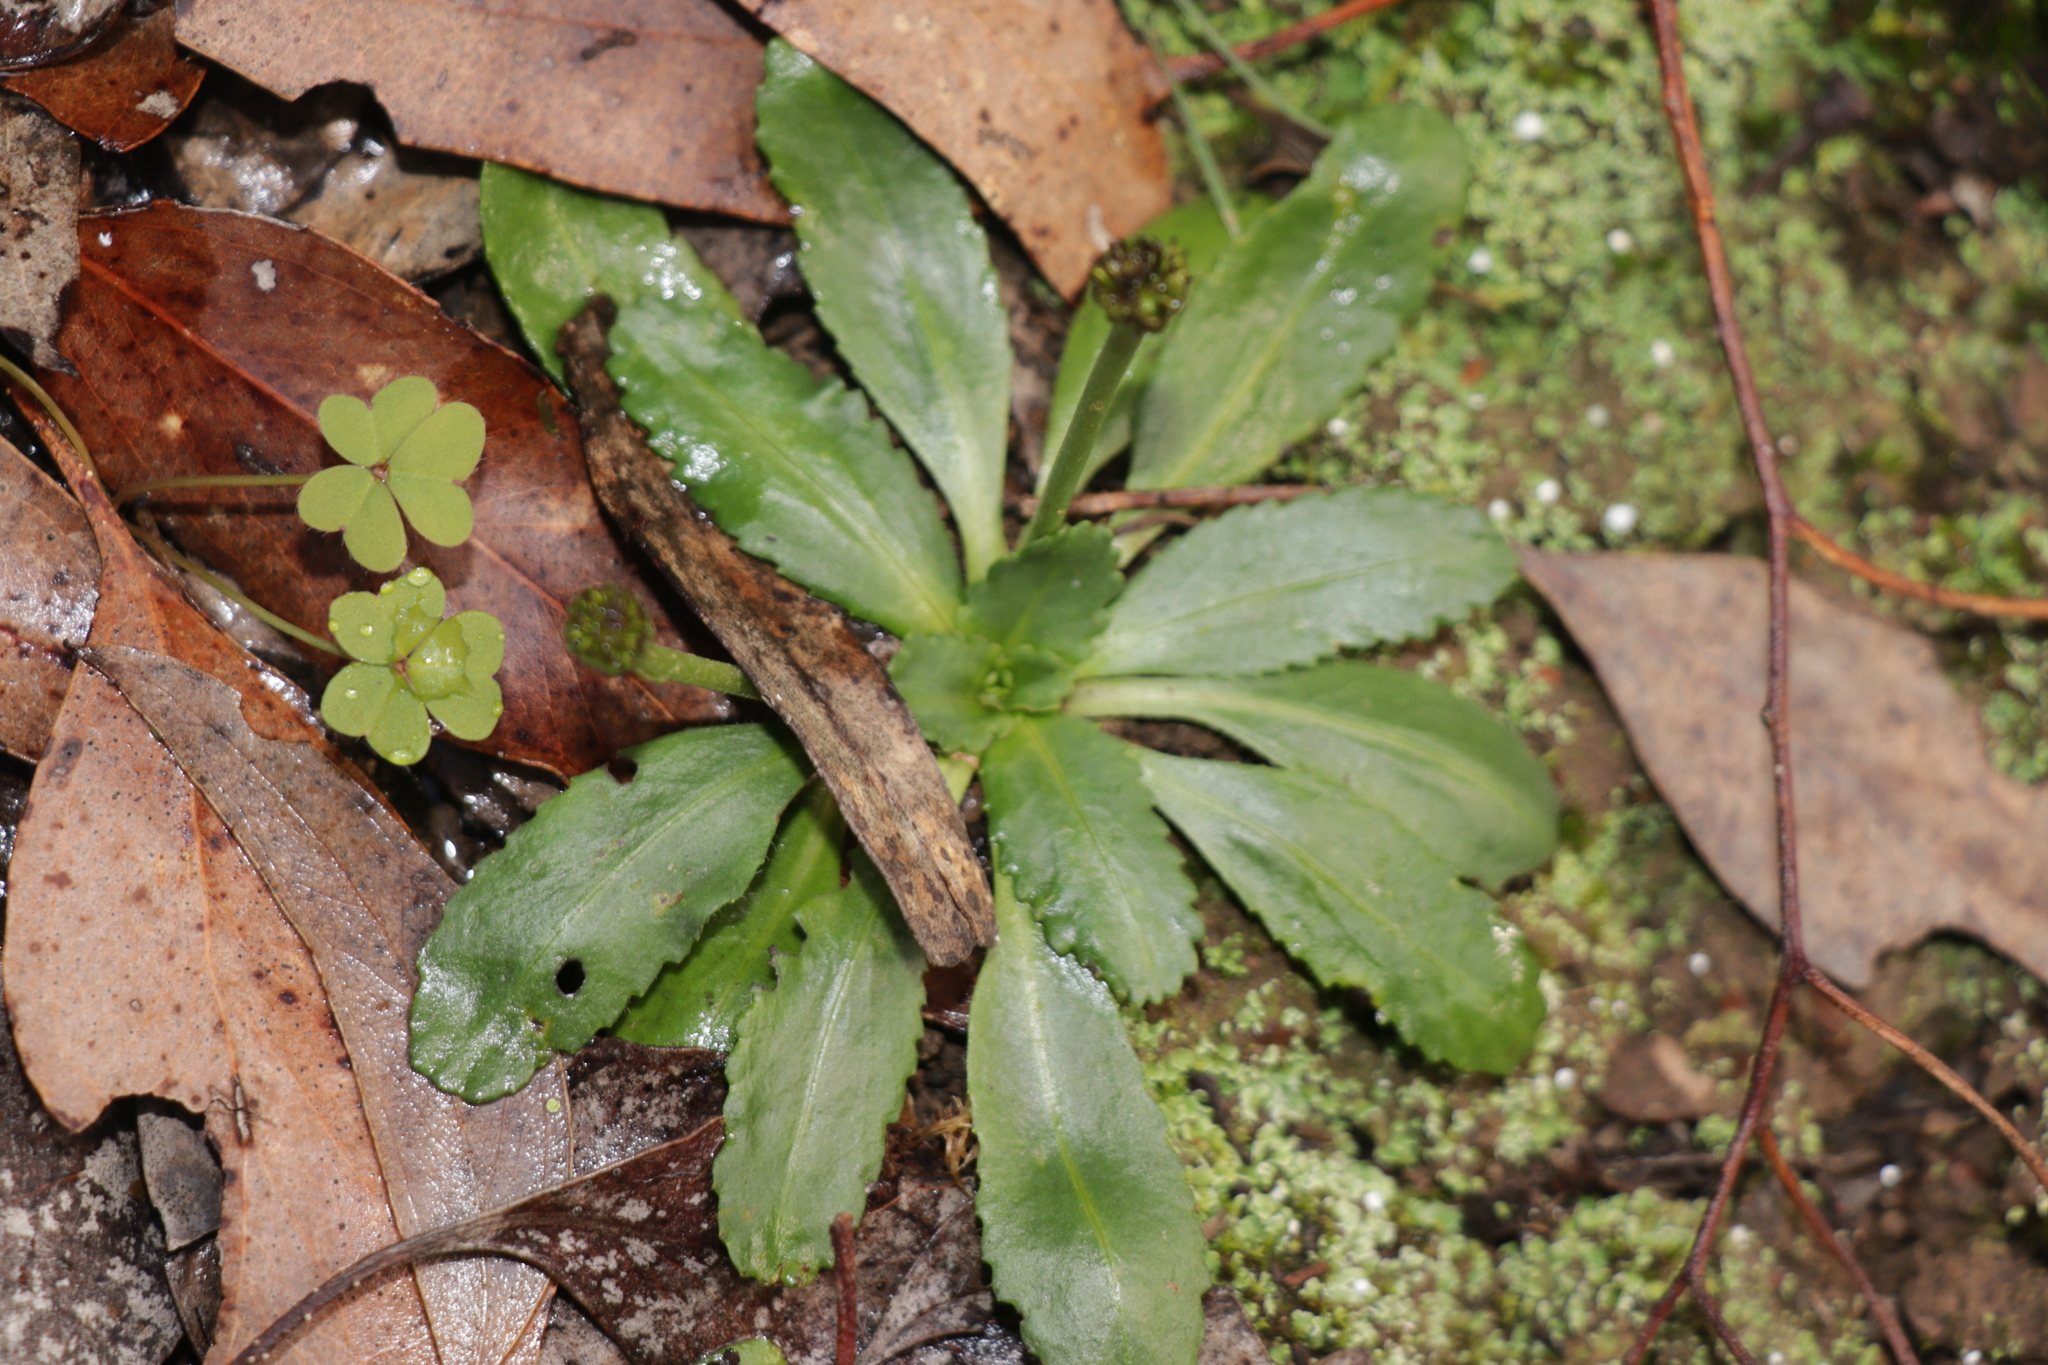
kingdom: Plantae
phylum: Tracheophyta
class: Magnoliopsida
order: Asterales
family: Asteraceae
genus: Solenogyne
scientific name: Solenogyne dominii
